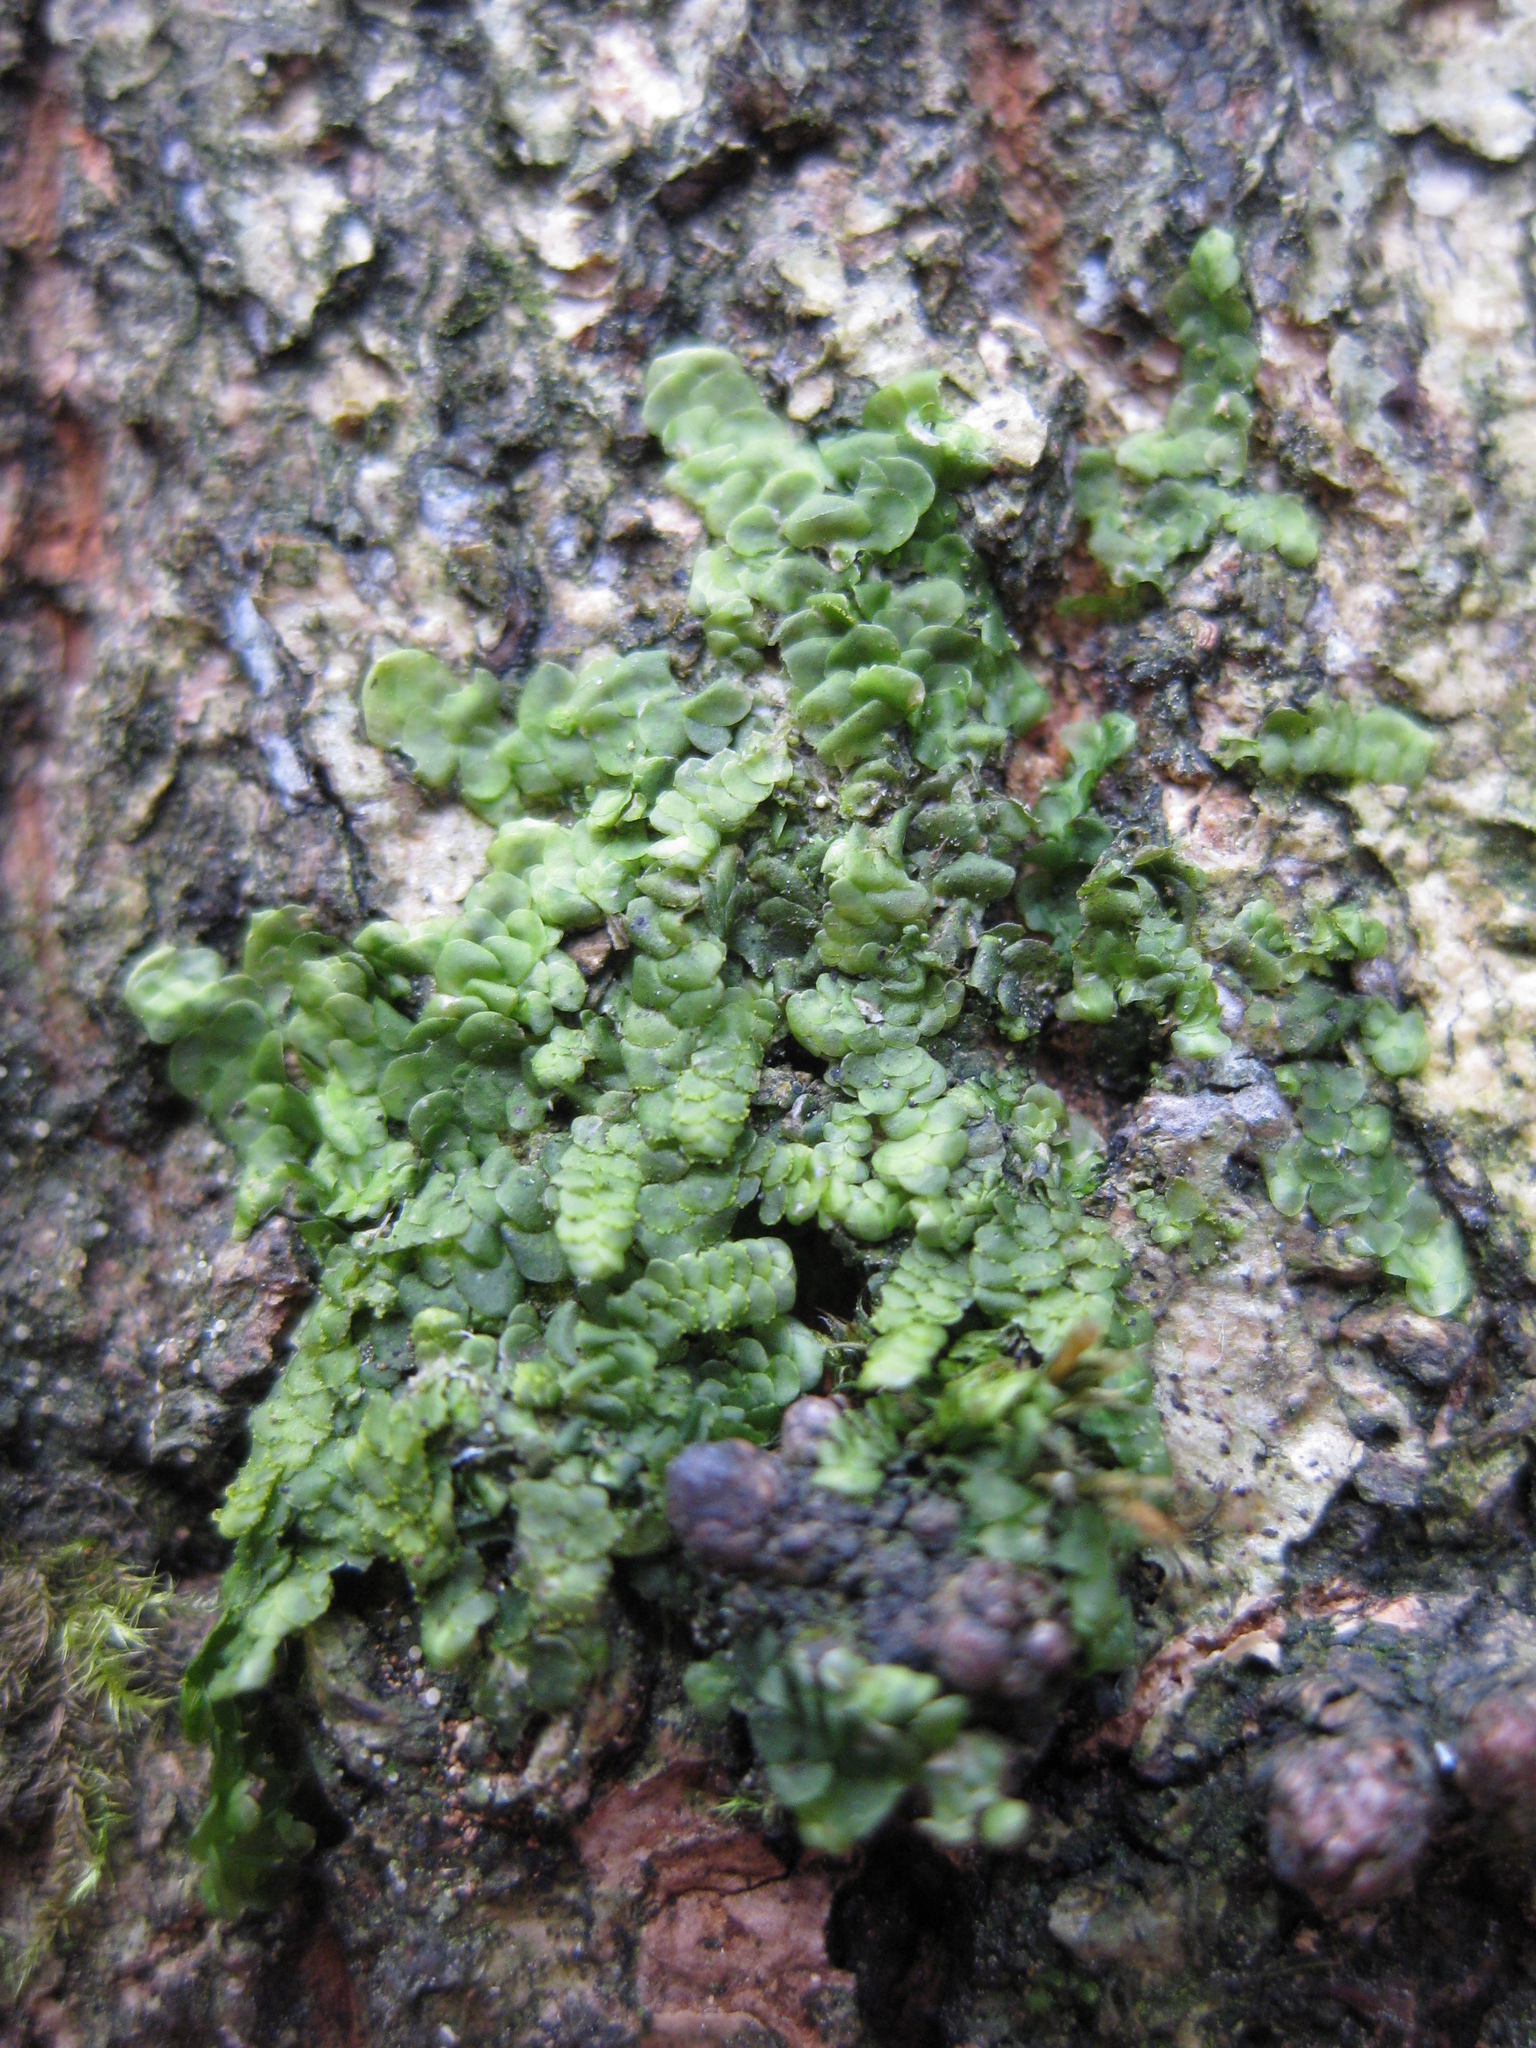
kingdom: Plantae
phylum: Marchantiophyta
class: Jungermanniopsida
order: Porellales
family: Radulaceae
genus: Radula
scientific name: Radula complanata
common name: Flat-leaved scalewort
